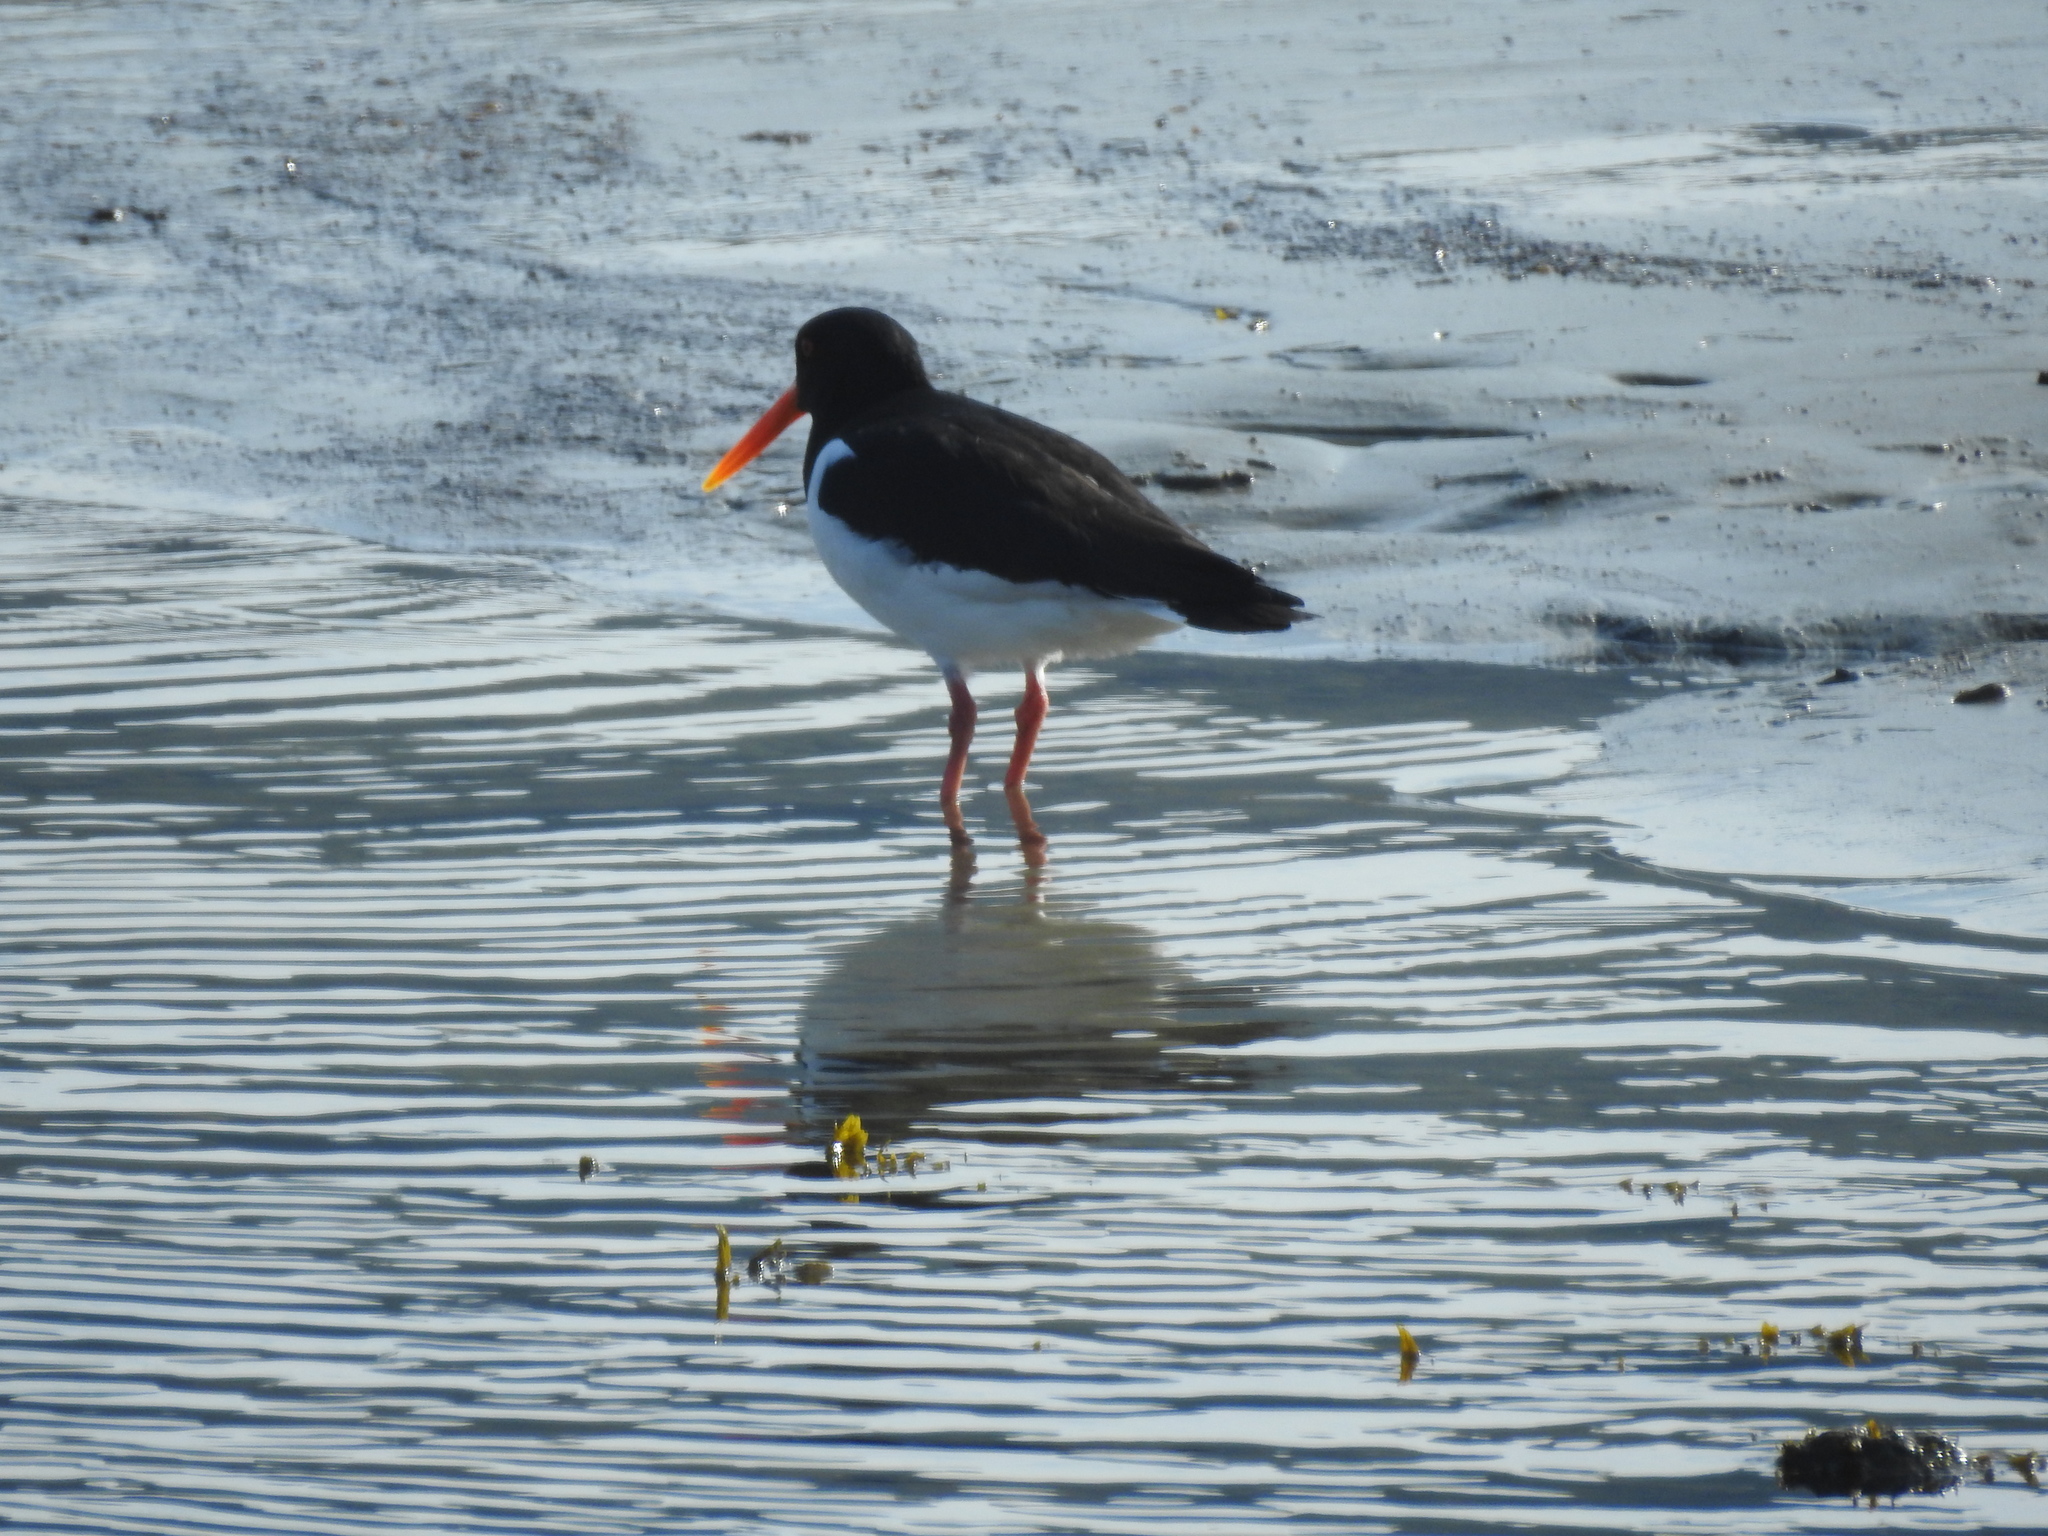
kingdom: Animalia
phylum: Chordata
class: Aves
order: Charadriiformes
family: Haematopodidae
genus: Haematopus
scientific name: Haematopus ostralegus
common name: Eurasian oystercatcher
